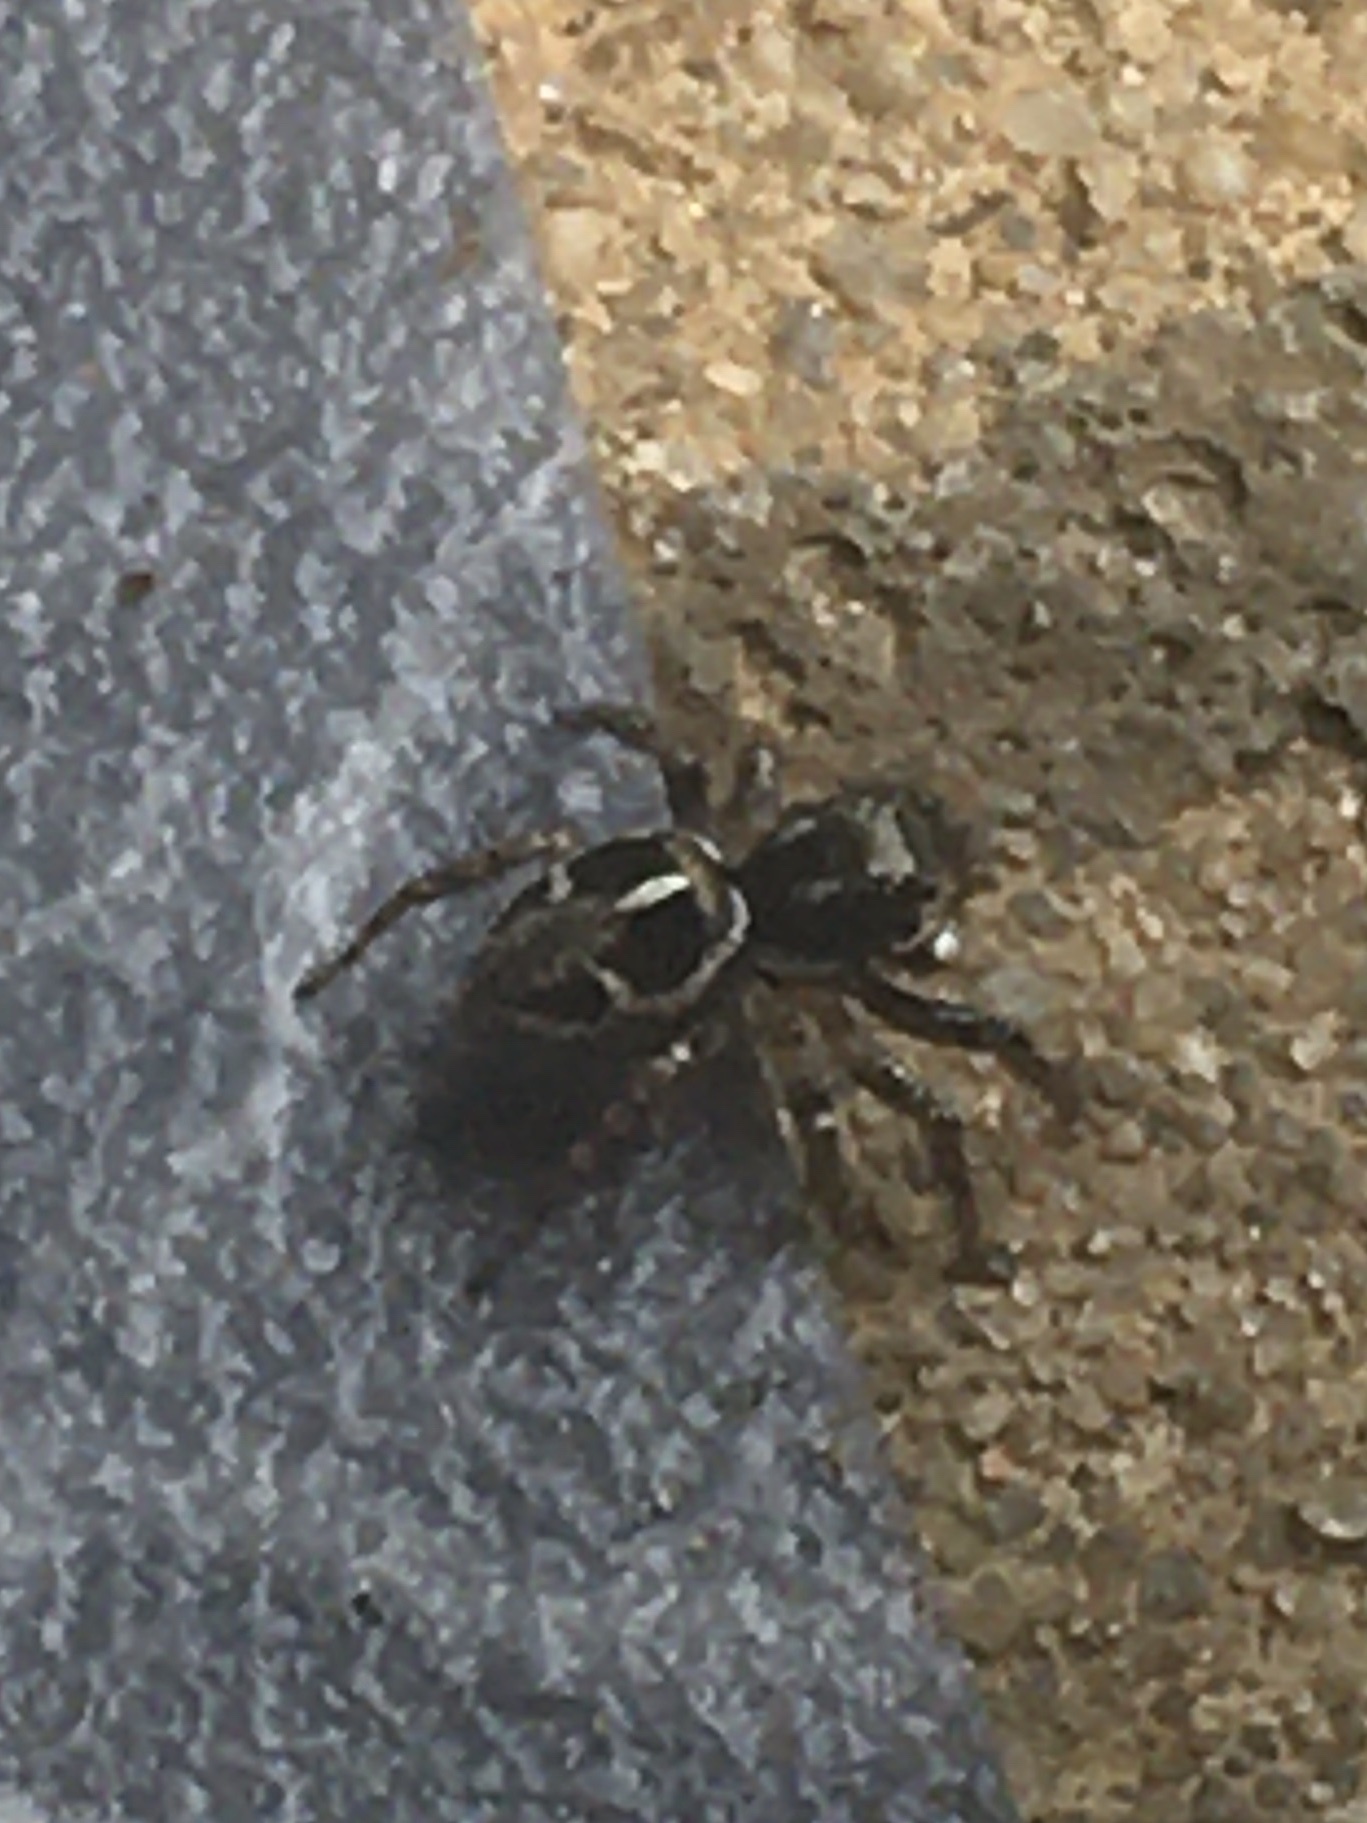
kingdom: Animalia
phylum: Arthropoda
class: Arachnida
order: Araneae
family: Salticidae
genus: Anasaitis
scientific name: Anasaitis canosa
